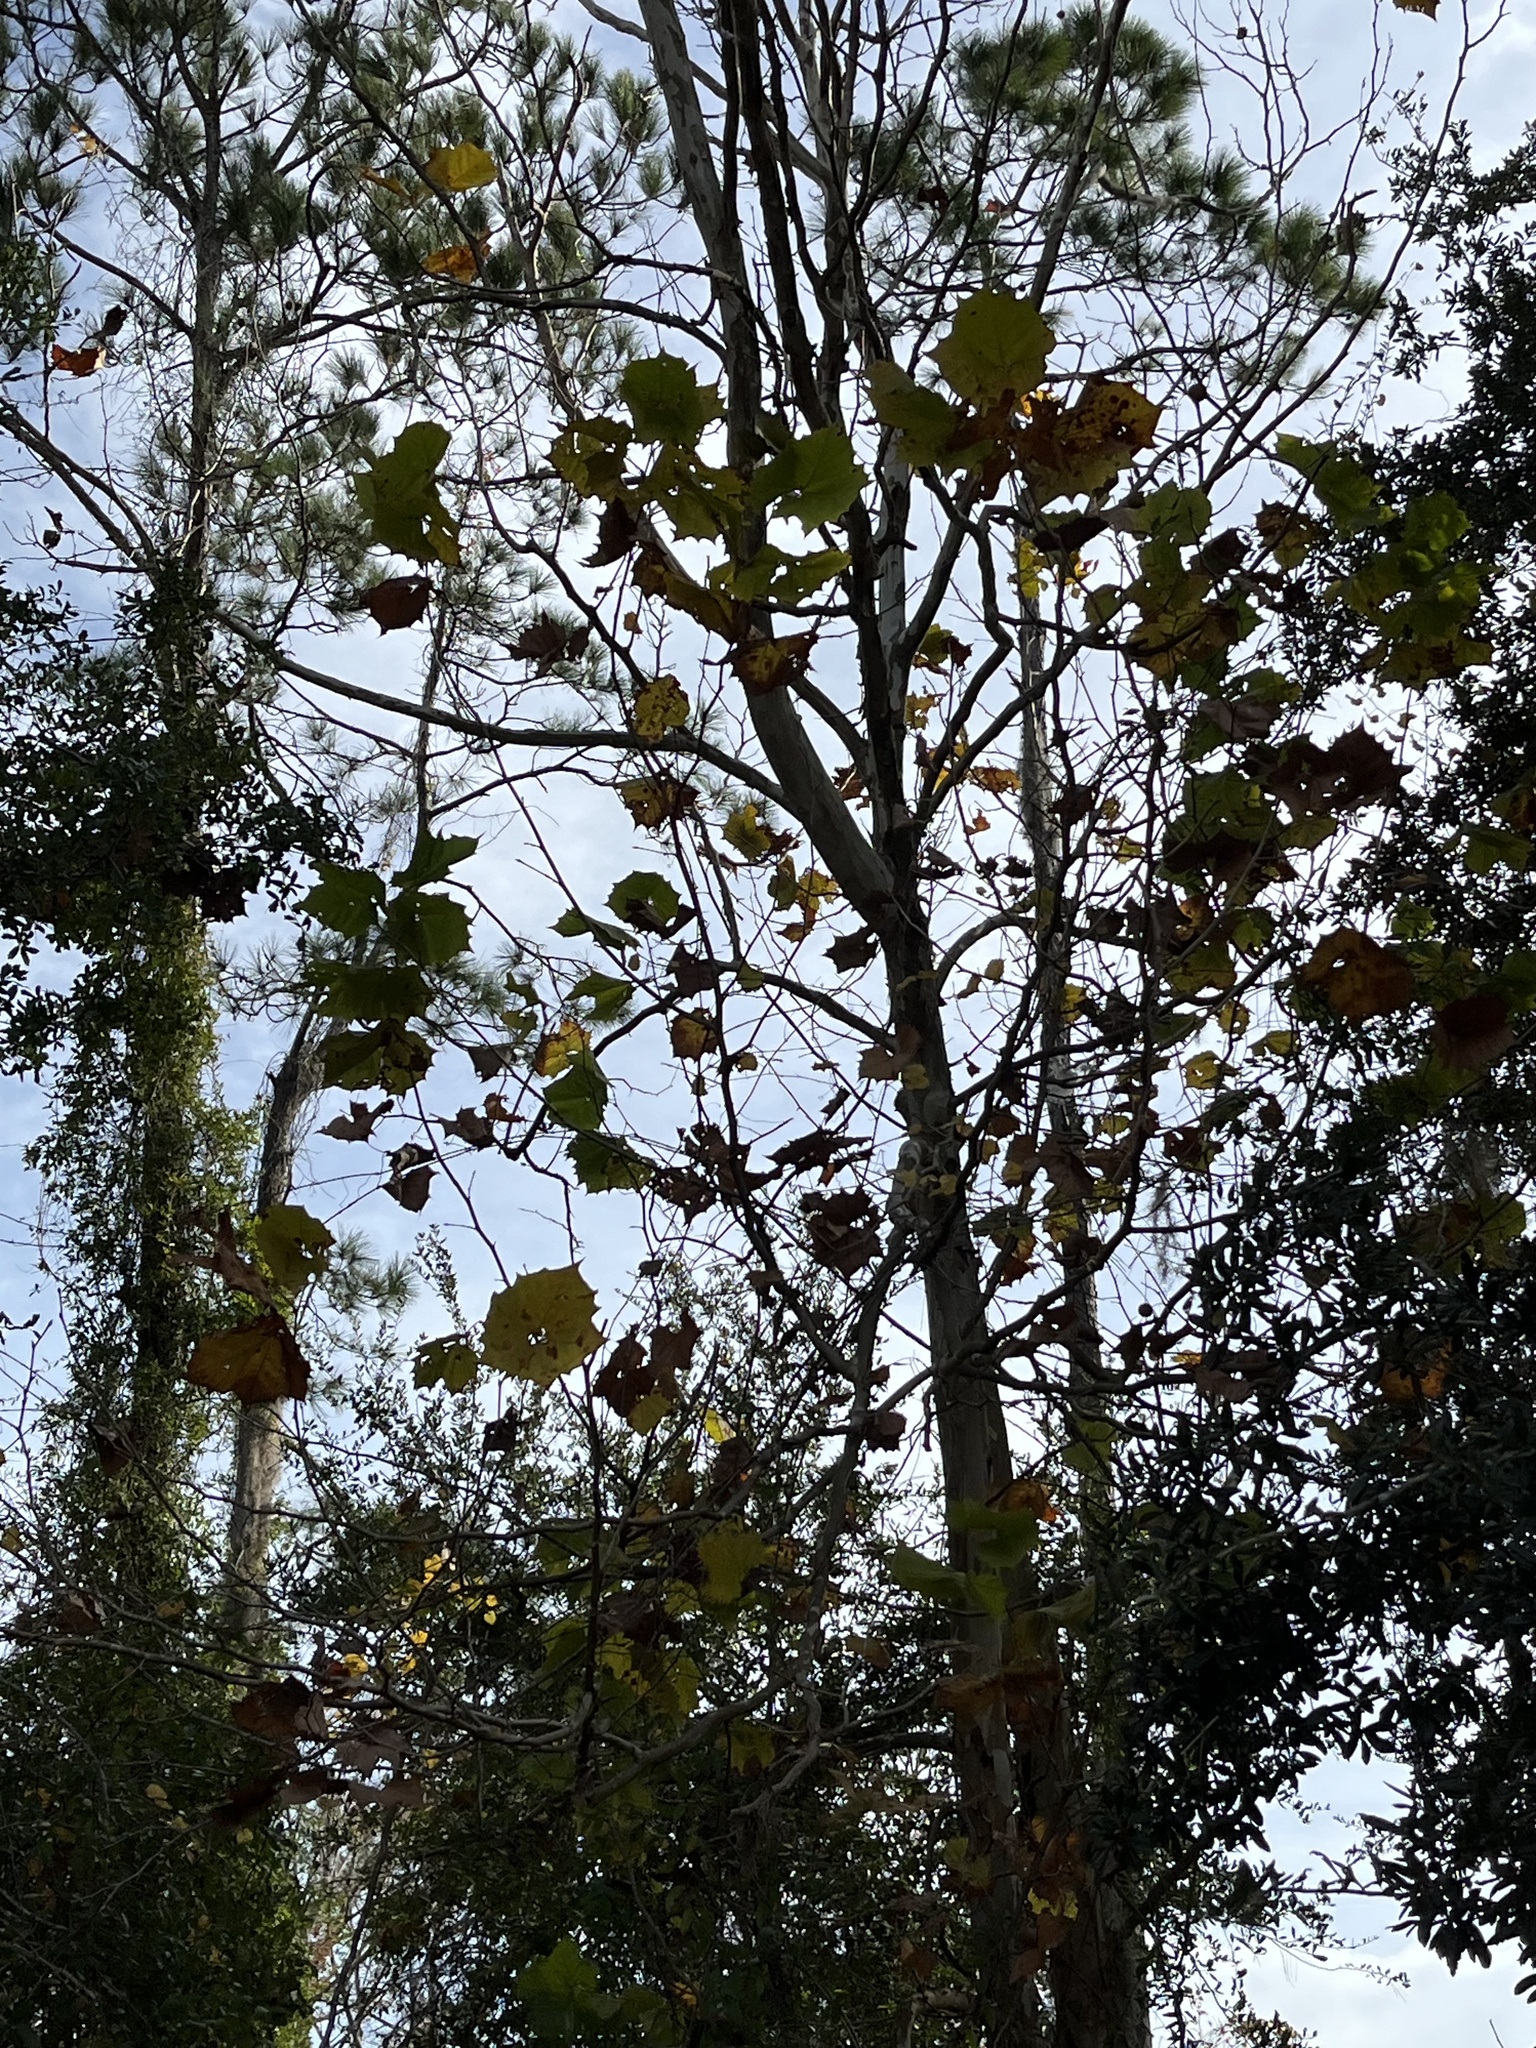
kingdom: Plantae
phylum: Tracheophyta
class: Magnoliopsida
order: Proteales
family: Platanaceae
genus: Platanus
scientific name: Platanus occidentalis
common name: American sycamore
